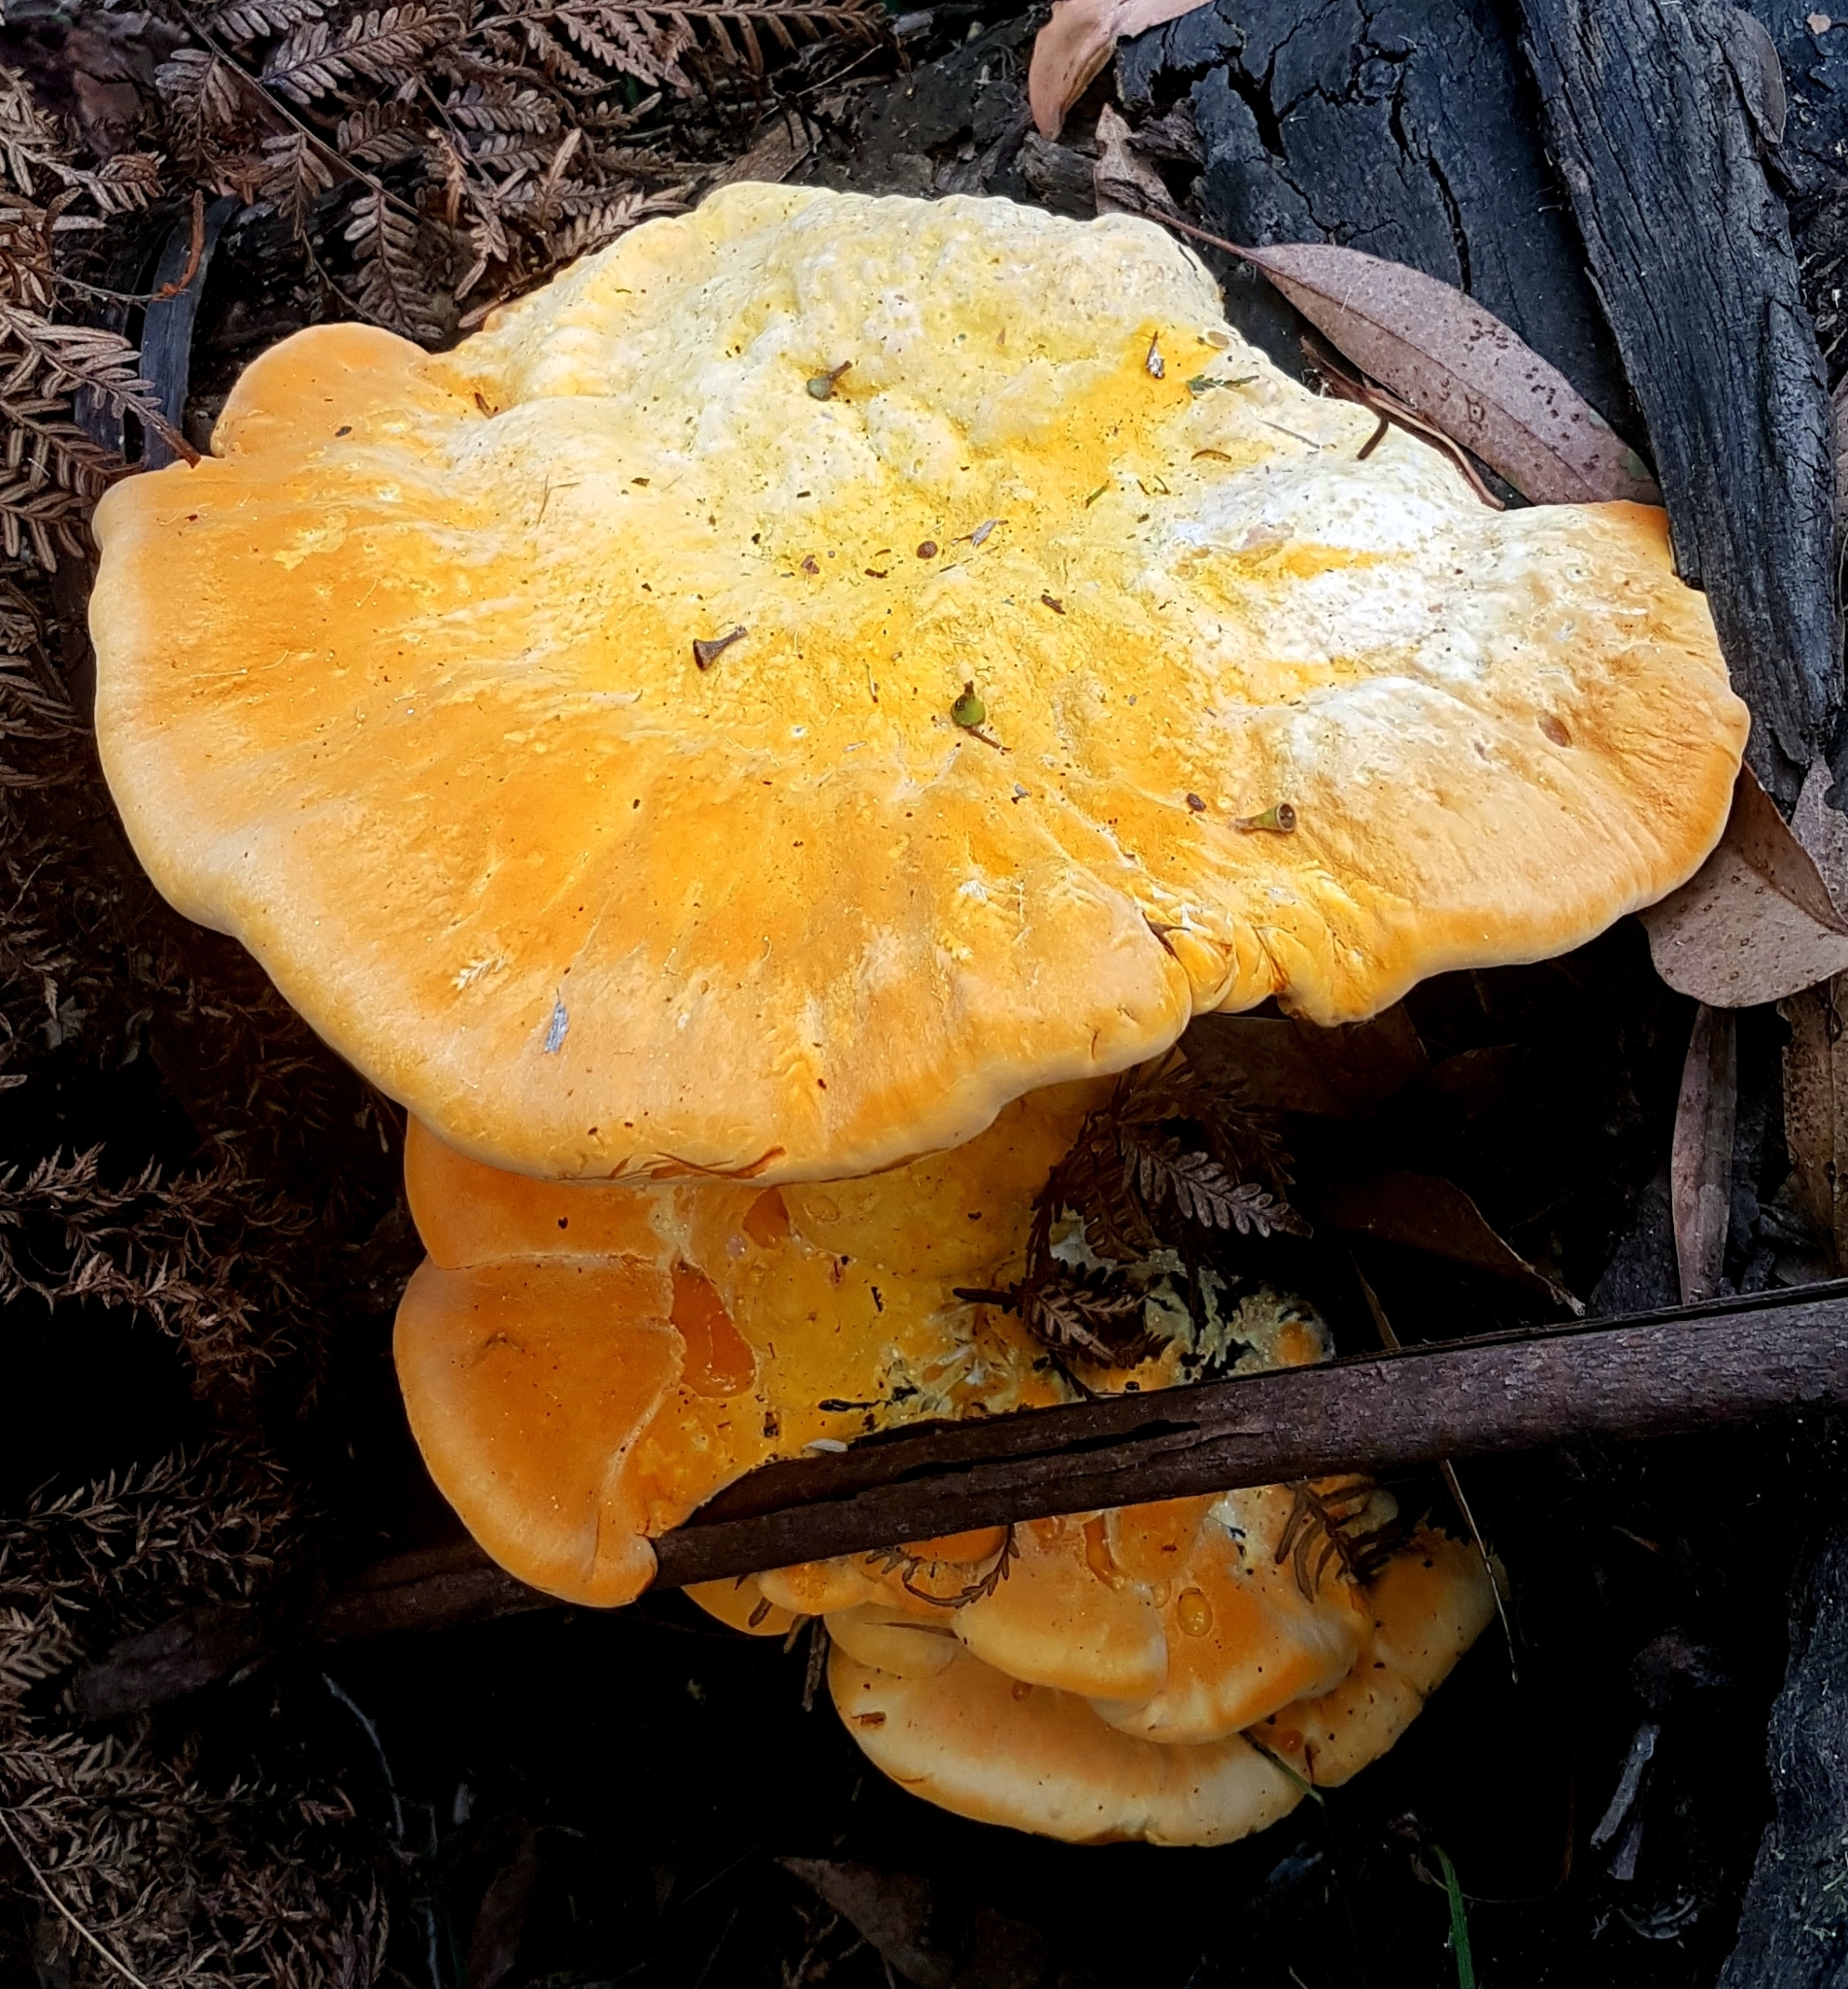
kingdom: Fungi
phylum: Basidiomycota
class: Agaricomycetes
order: Polyporales
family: Polyporaceae
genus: Polyporus
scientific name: Polyporus australiensis
